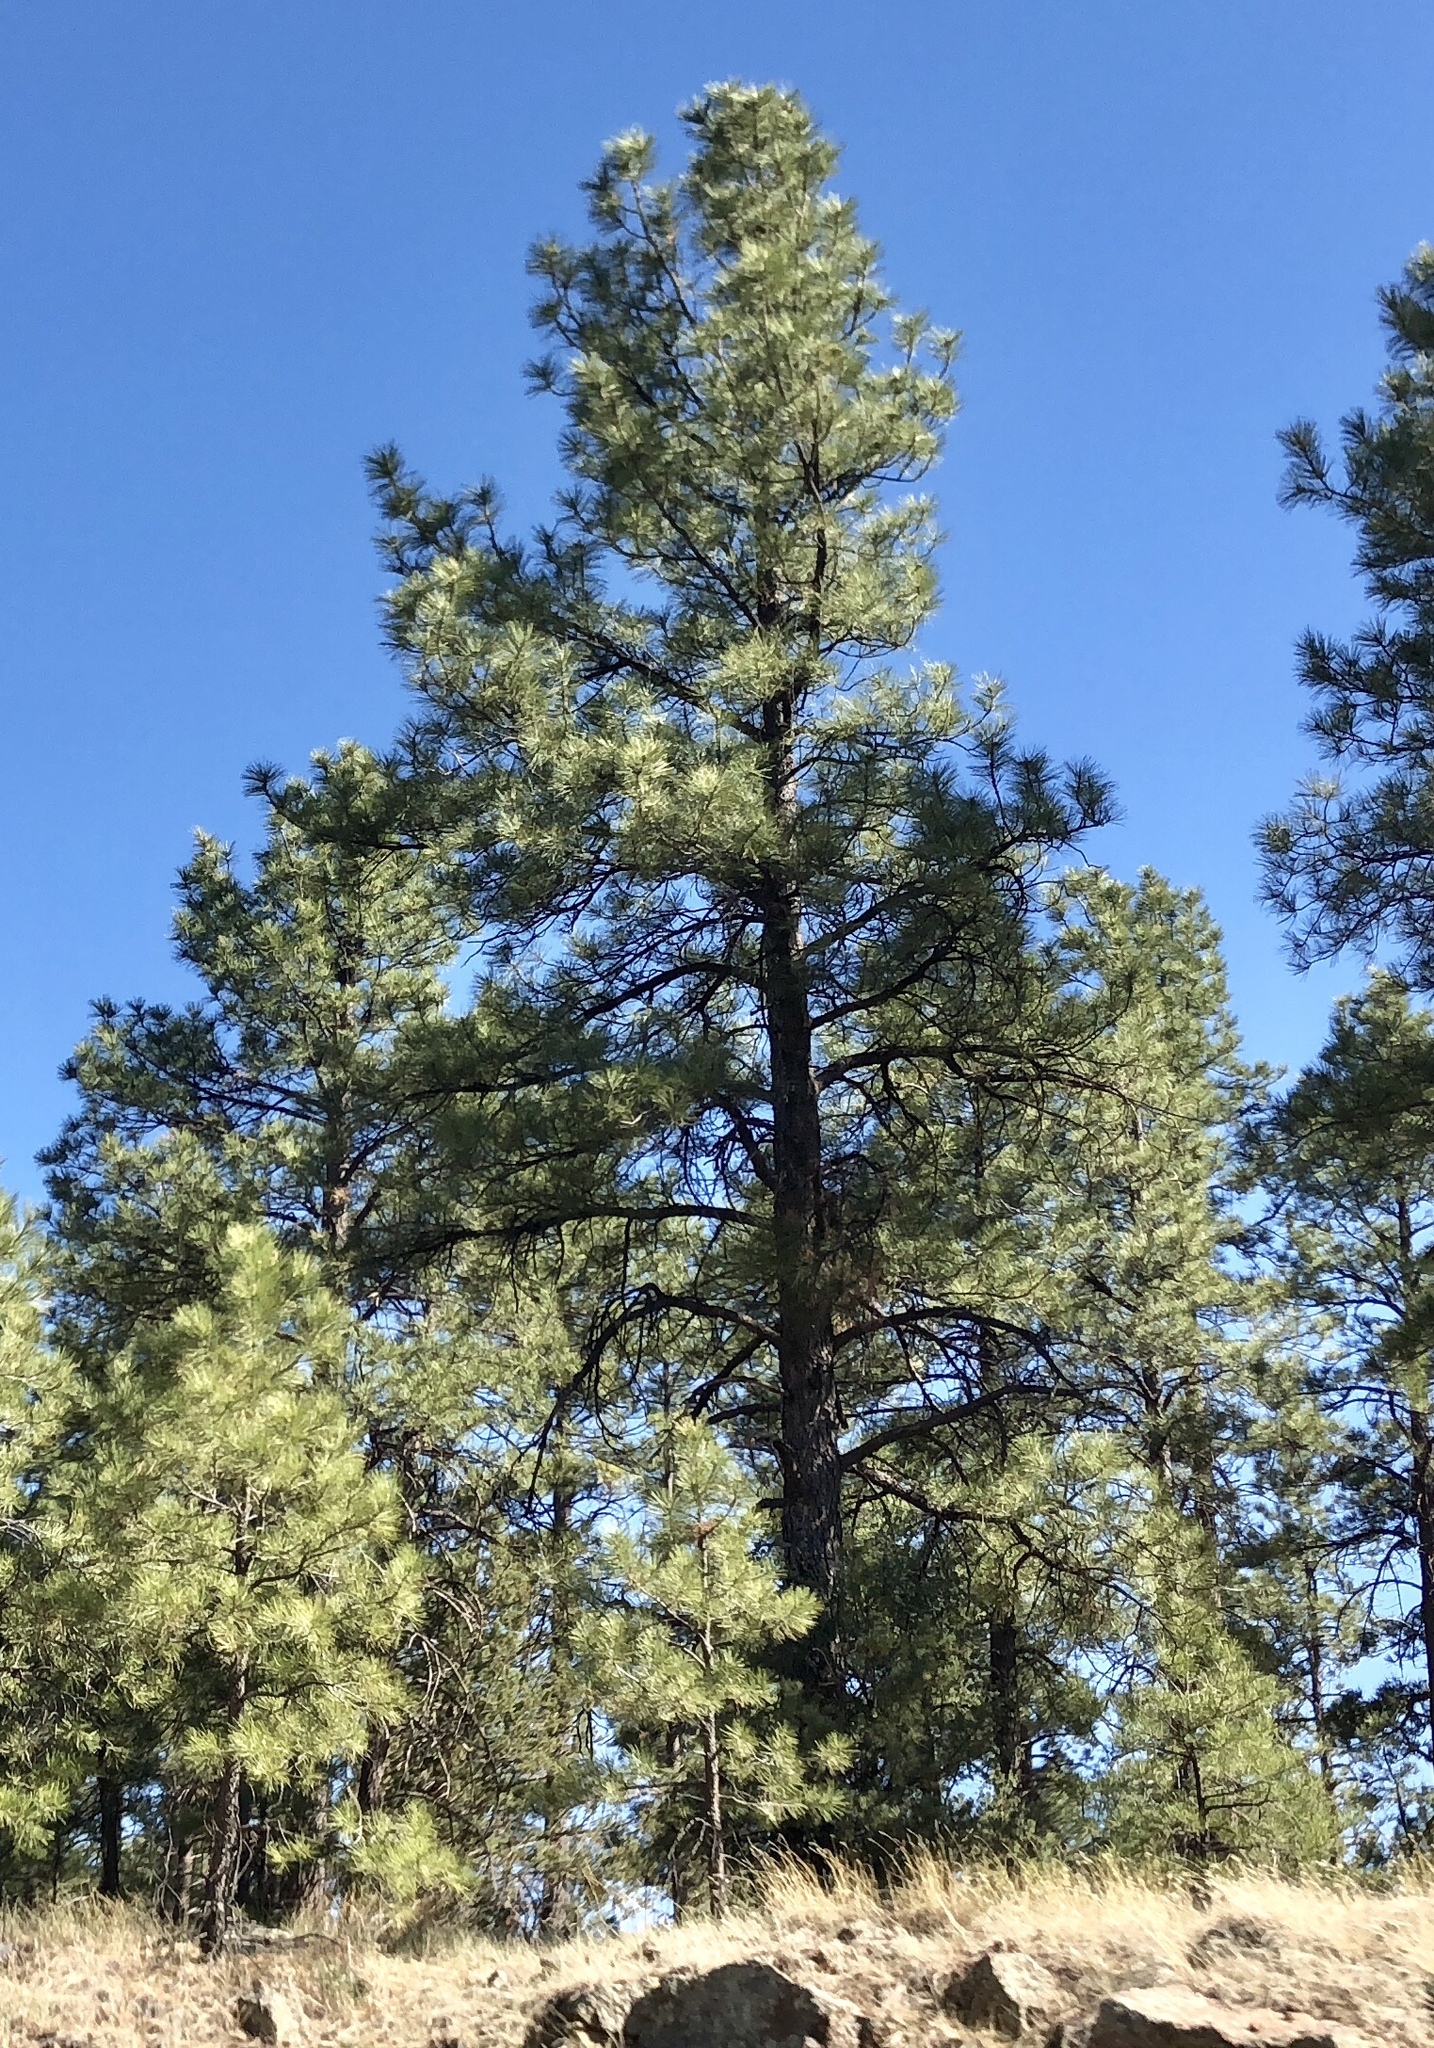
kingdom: Plantae
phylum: Tracheophyta
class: Pinopsida
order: Pinales
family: Pinaceae
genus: Pinus
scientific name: Pinus ponderosa
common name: Western yellow-pine
